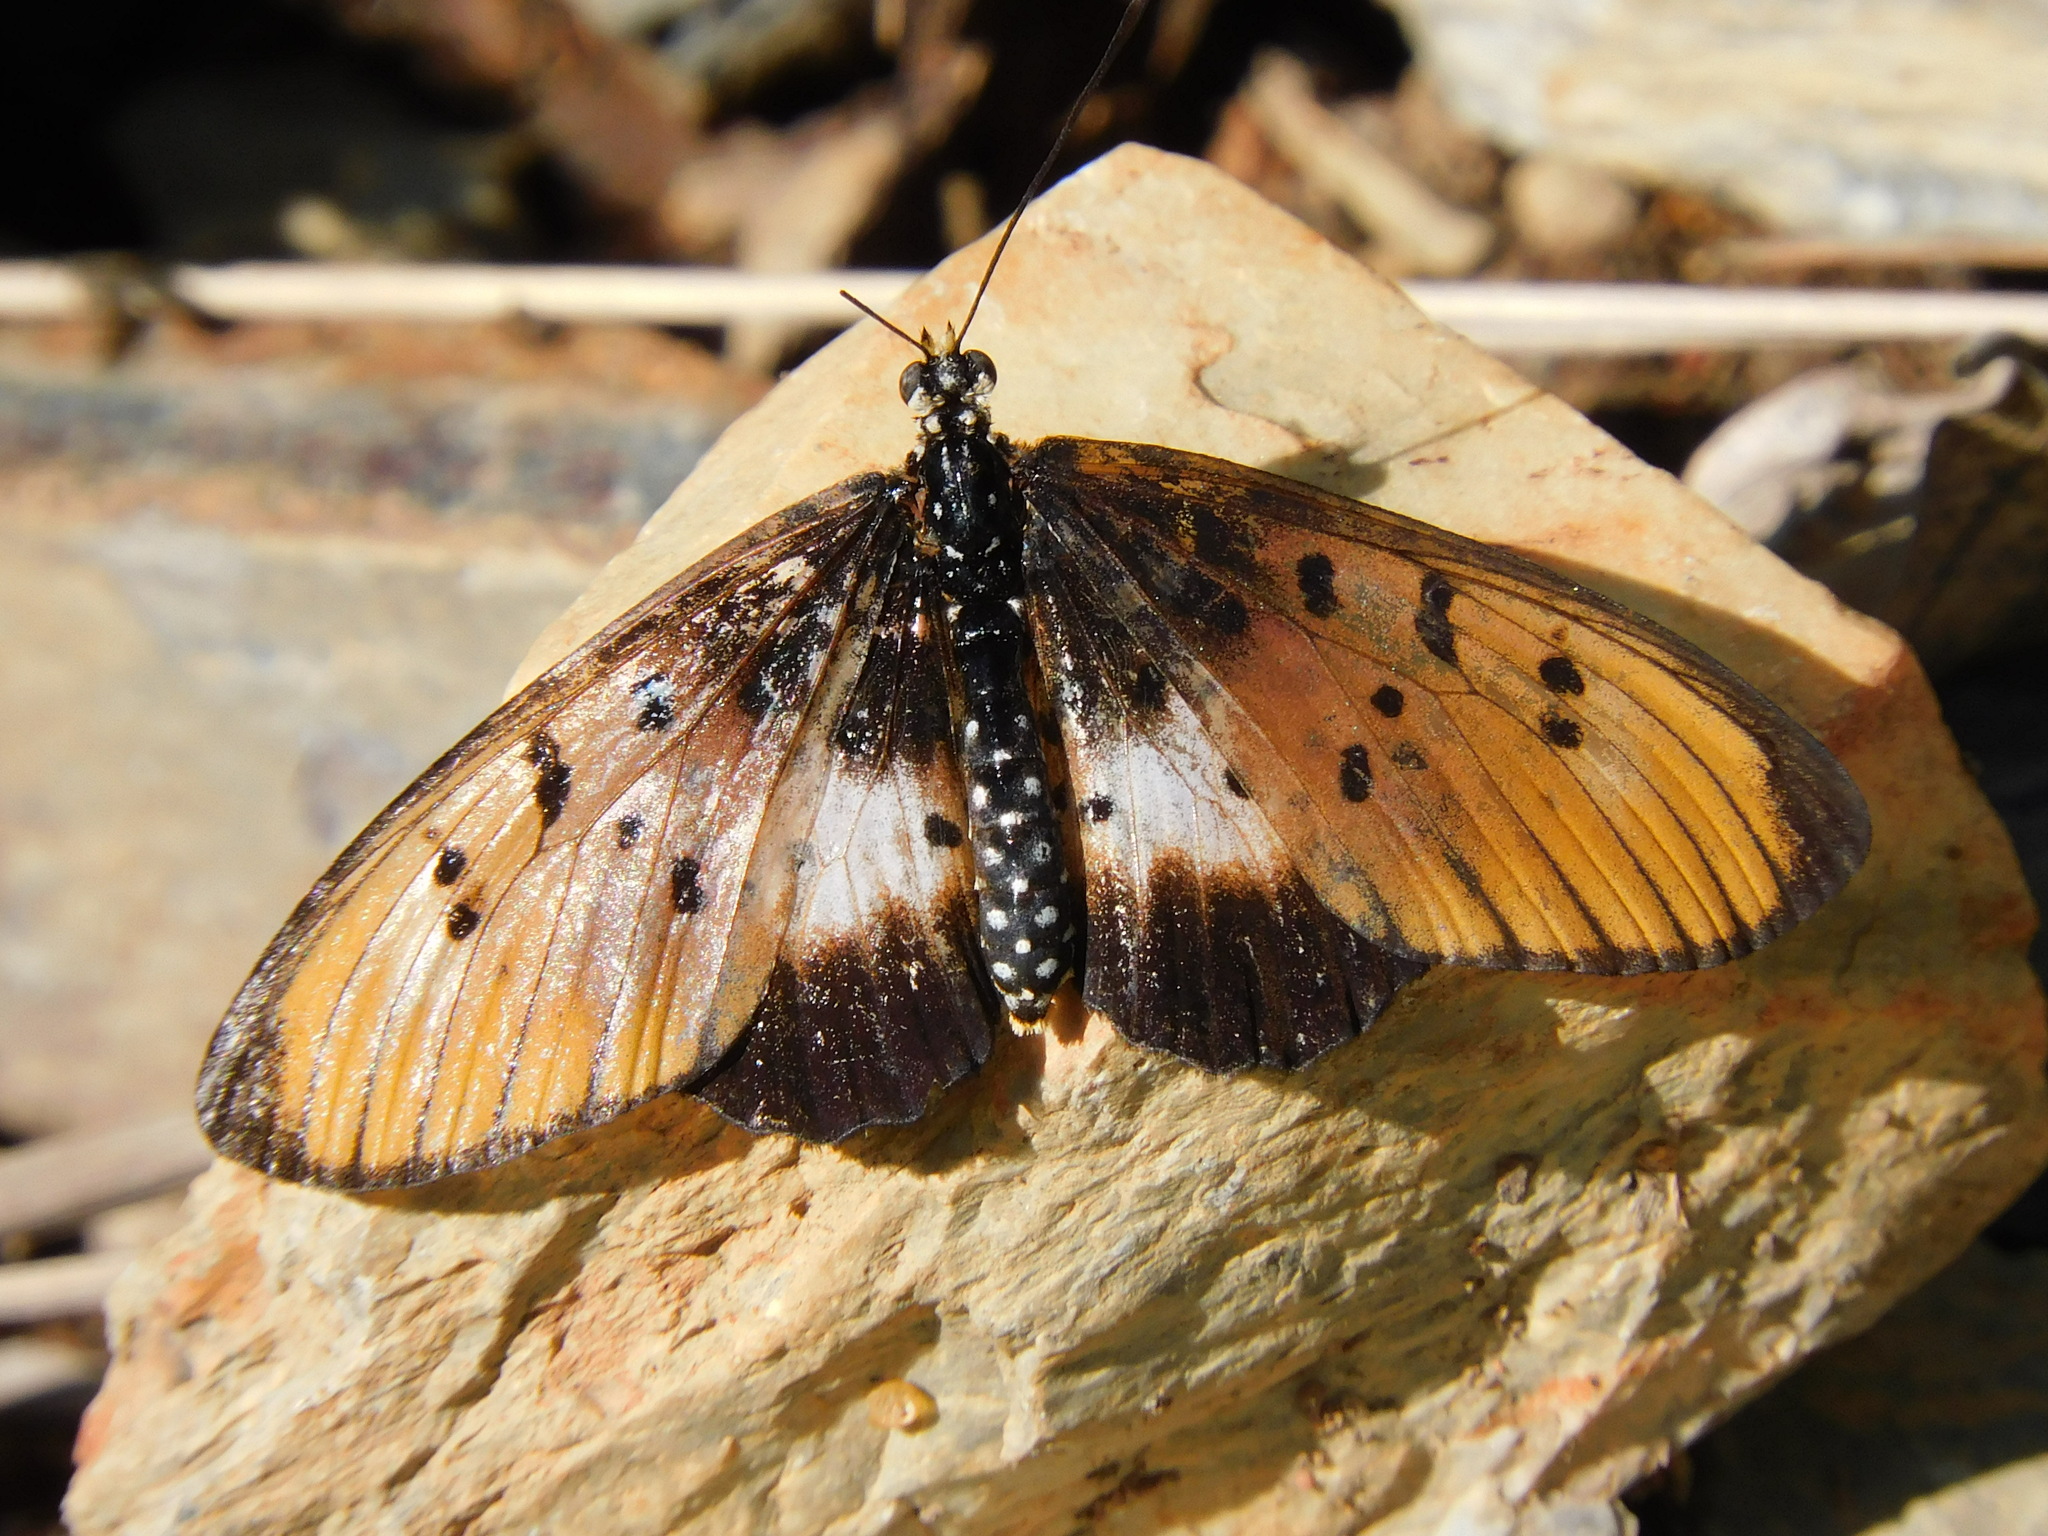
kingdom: Animalia
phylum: Arthropoda
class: Insecta
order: Lepidoptera
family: Nymphalidae
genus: Stephenia
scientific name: Stephenia
